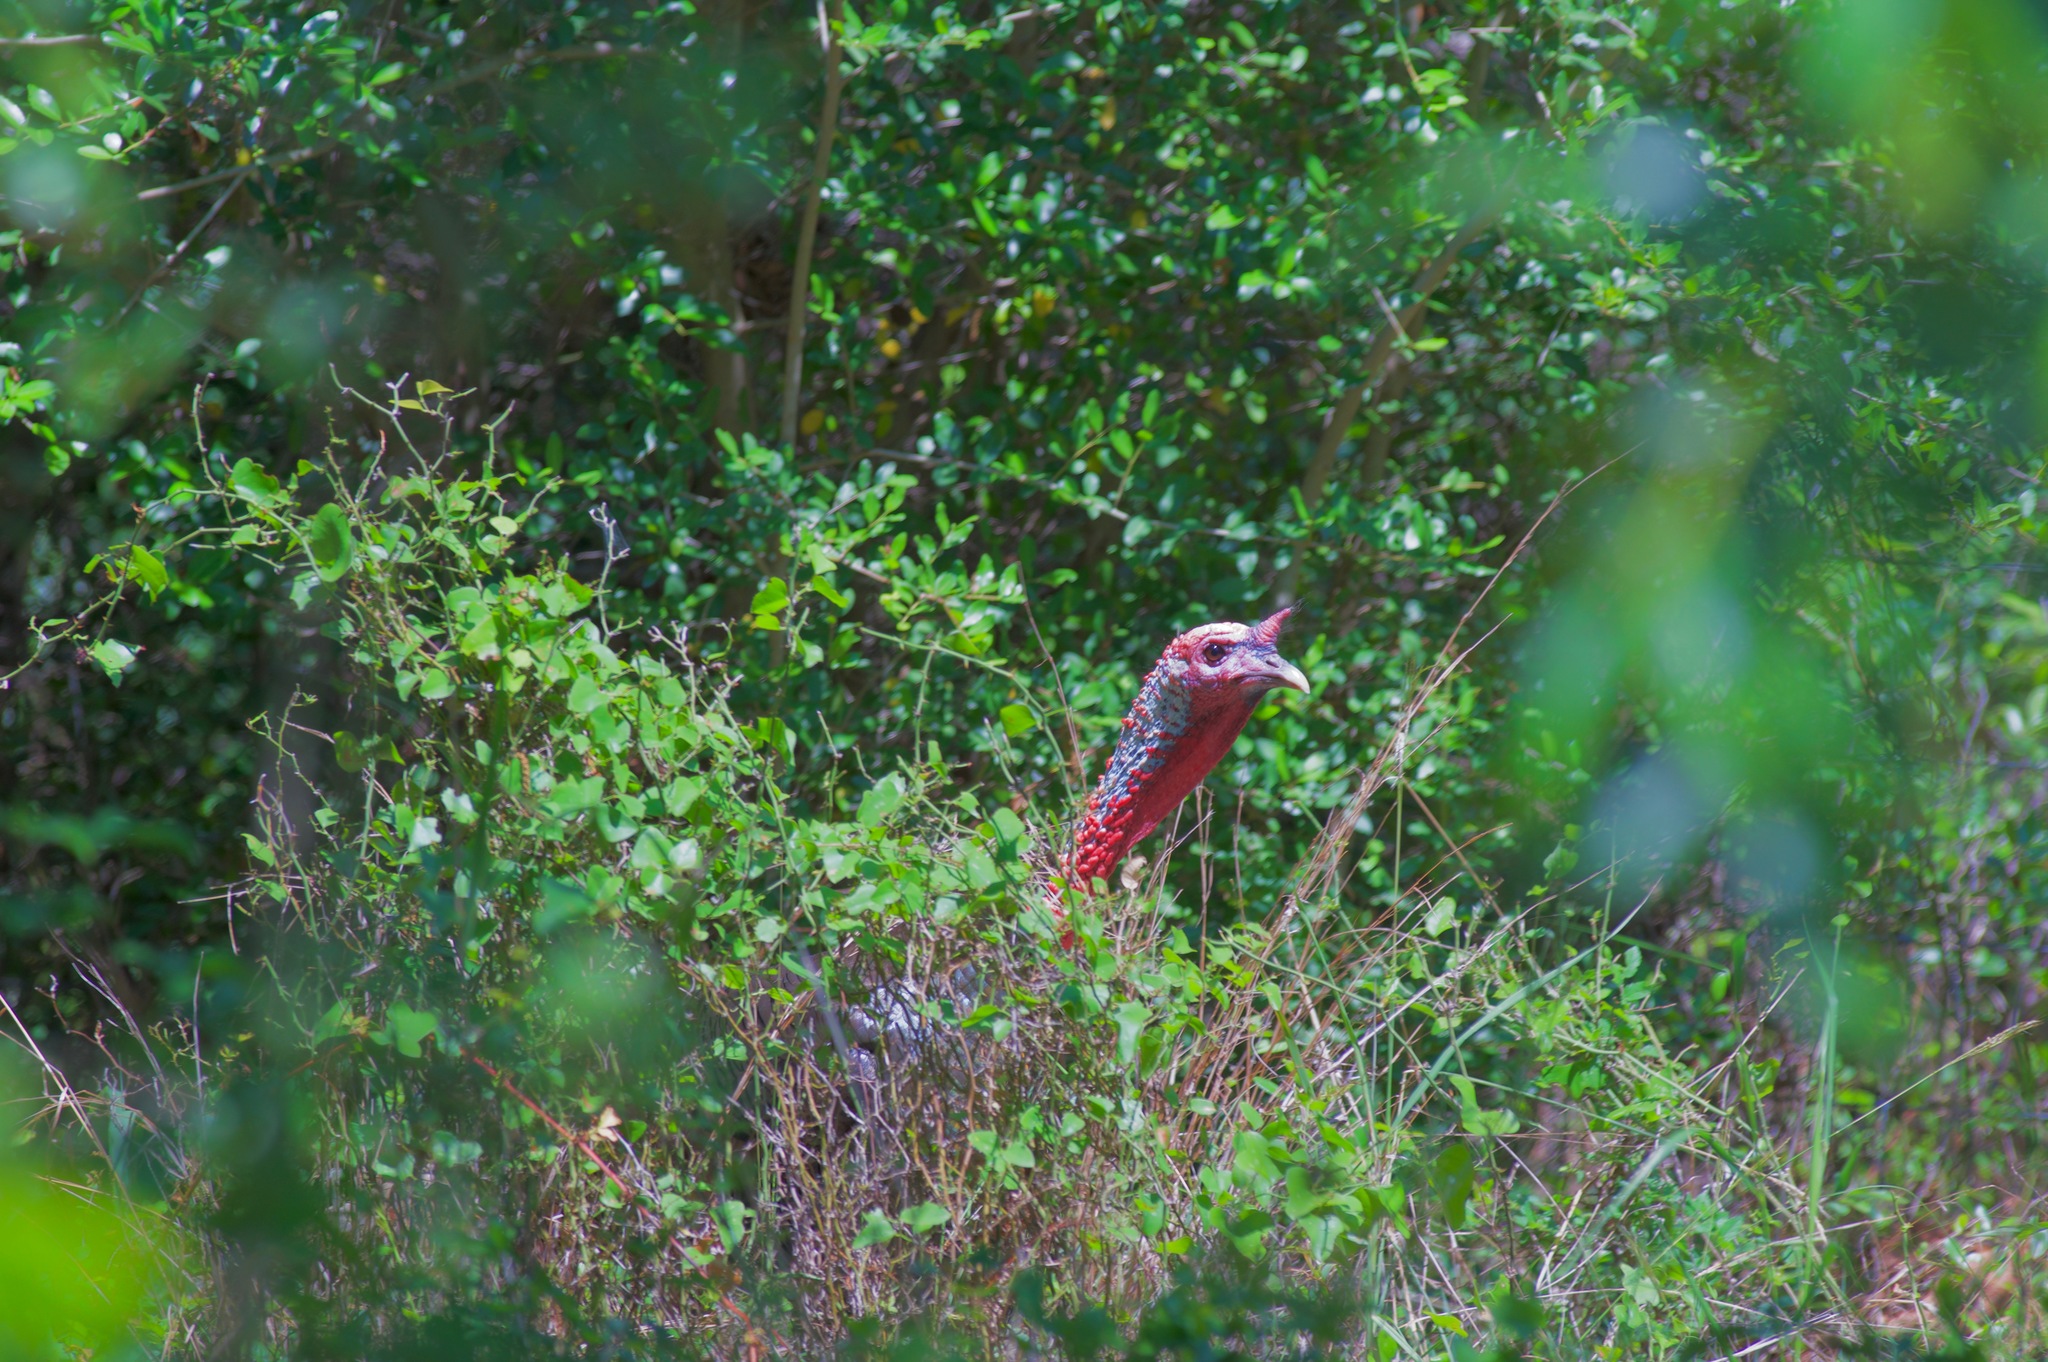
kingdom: Animalia
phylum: Chordata
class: Aves
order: Galliformes
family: Phasianidae
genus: Meleagris
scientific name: Meleagris gallopavo
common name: Wild turkey
